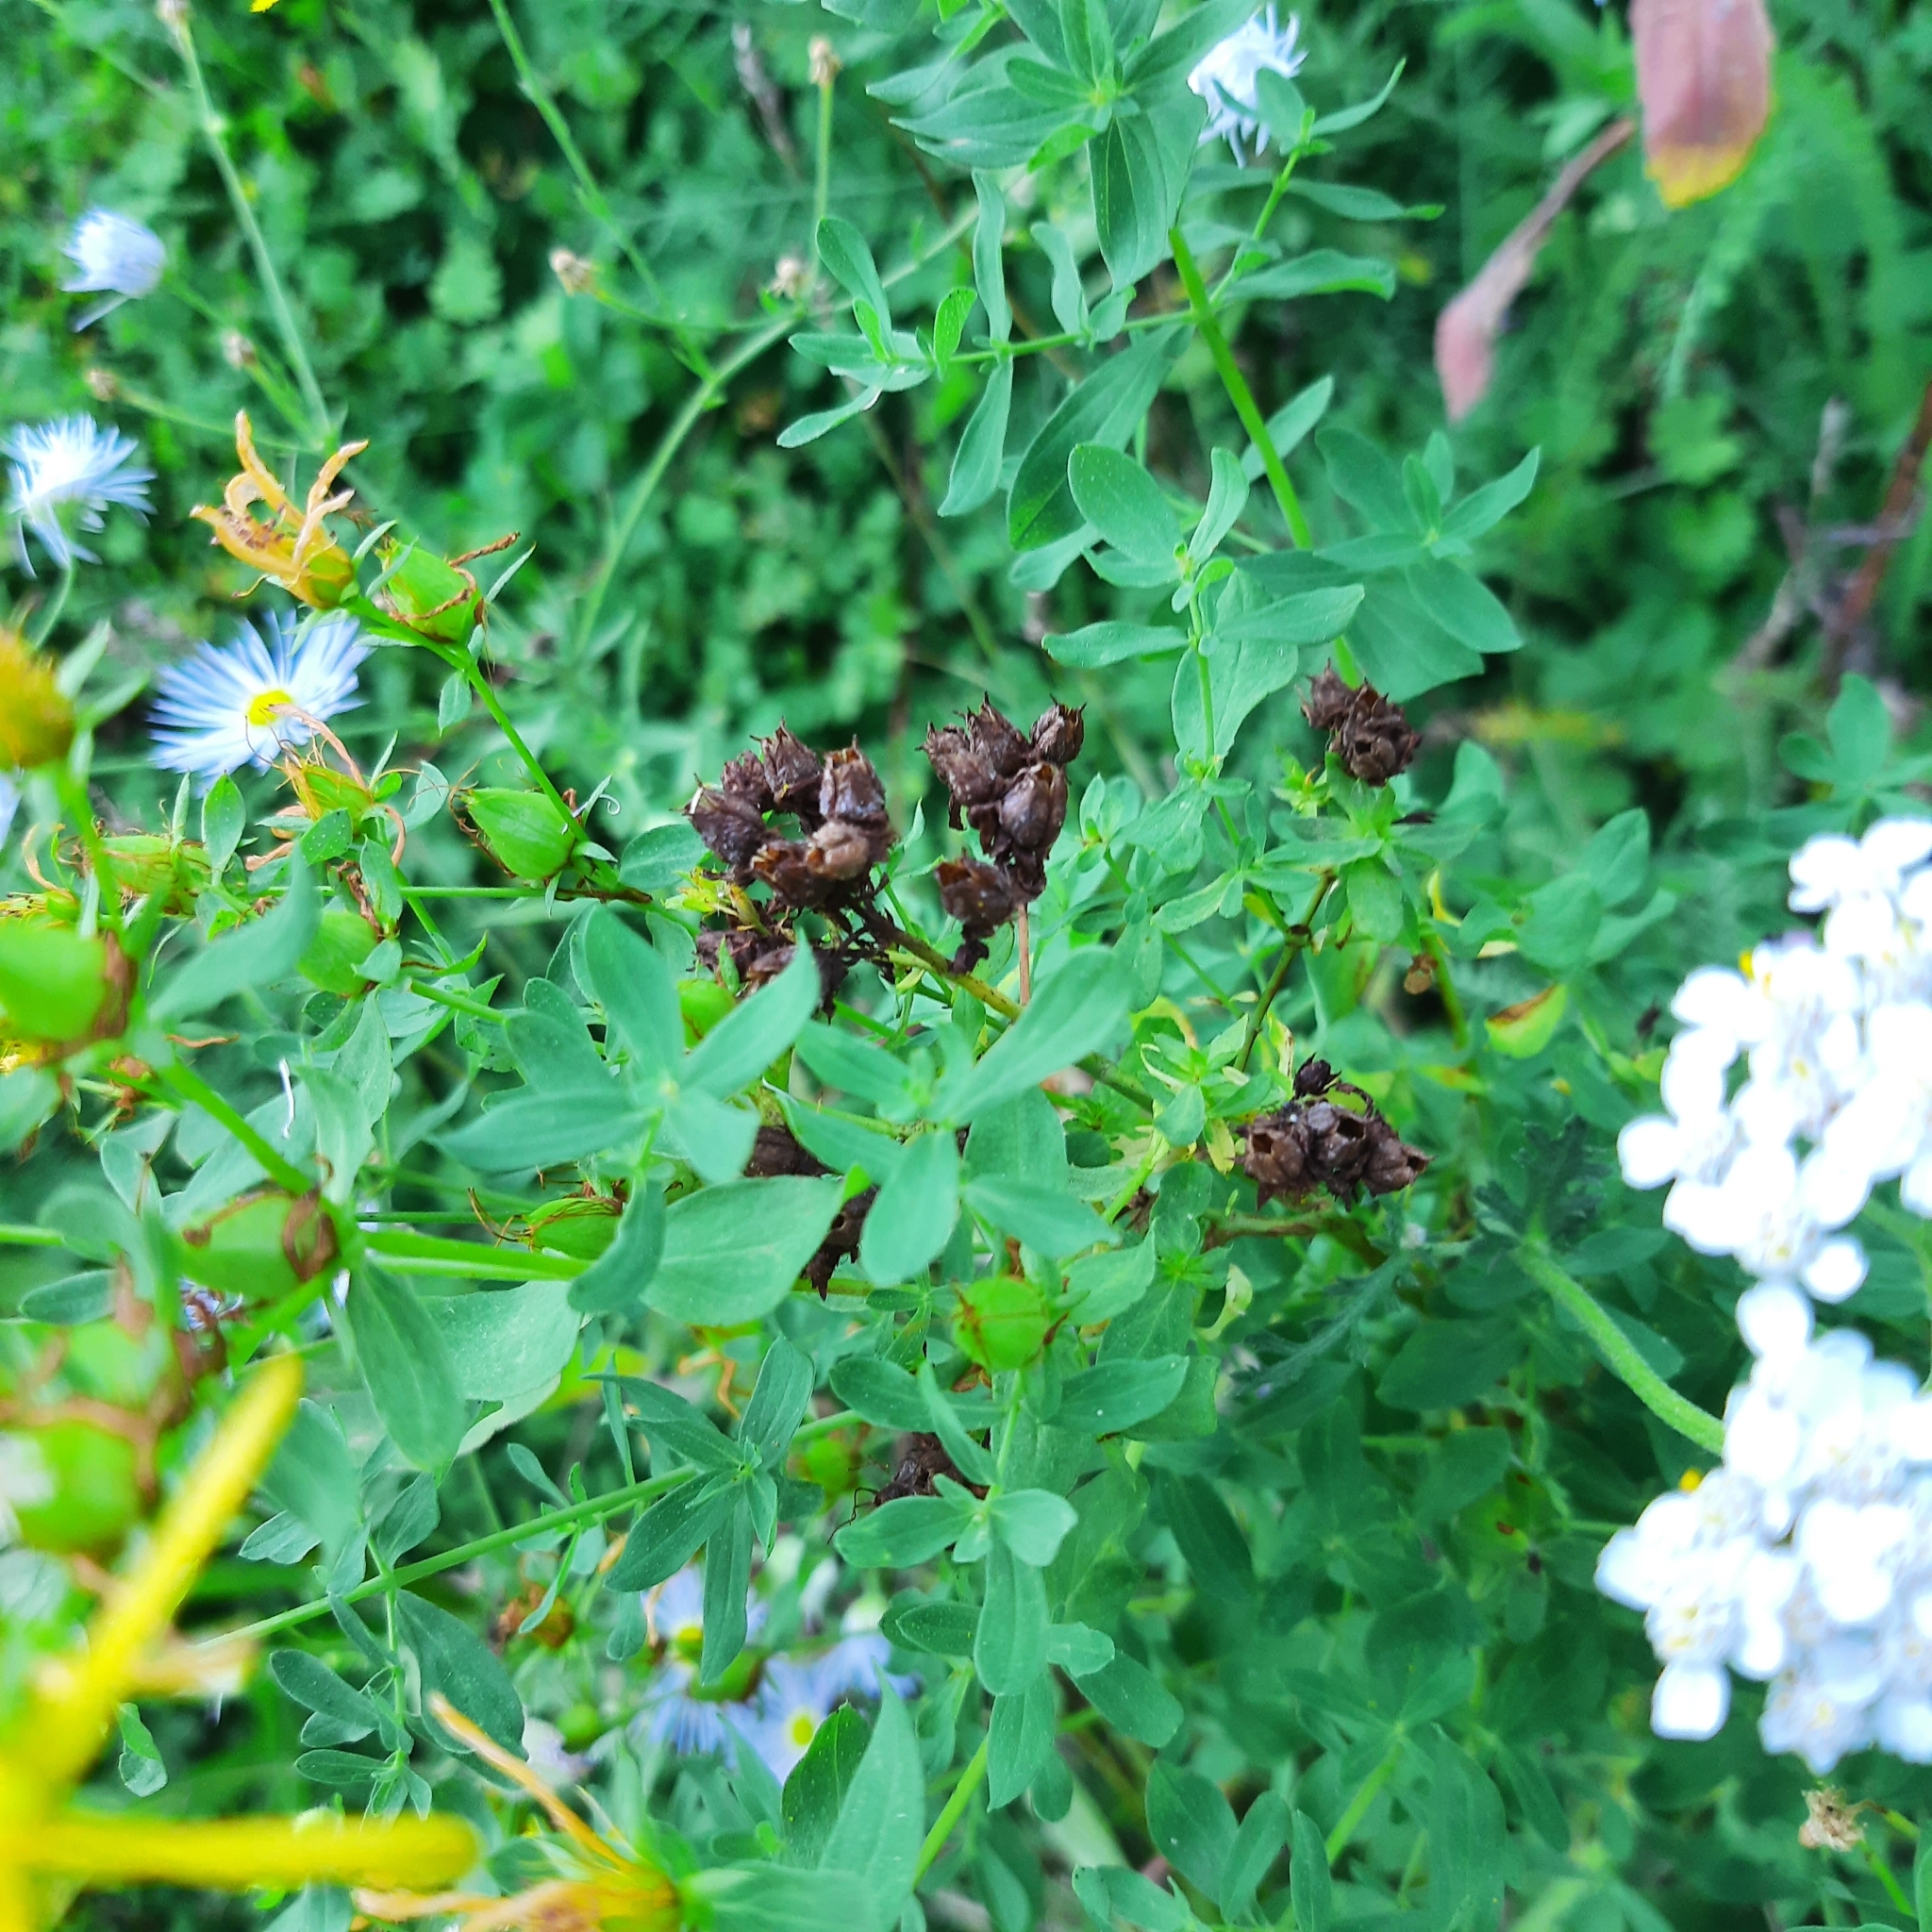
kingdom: Plantae
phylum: Tracheophyta
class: Magnoliopsida
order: Malpighiales
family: Hypericaceae
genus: Hypericum
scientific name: Hypericum perforatum
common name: Common st. johnswort
